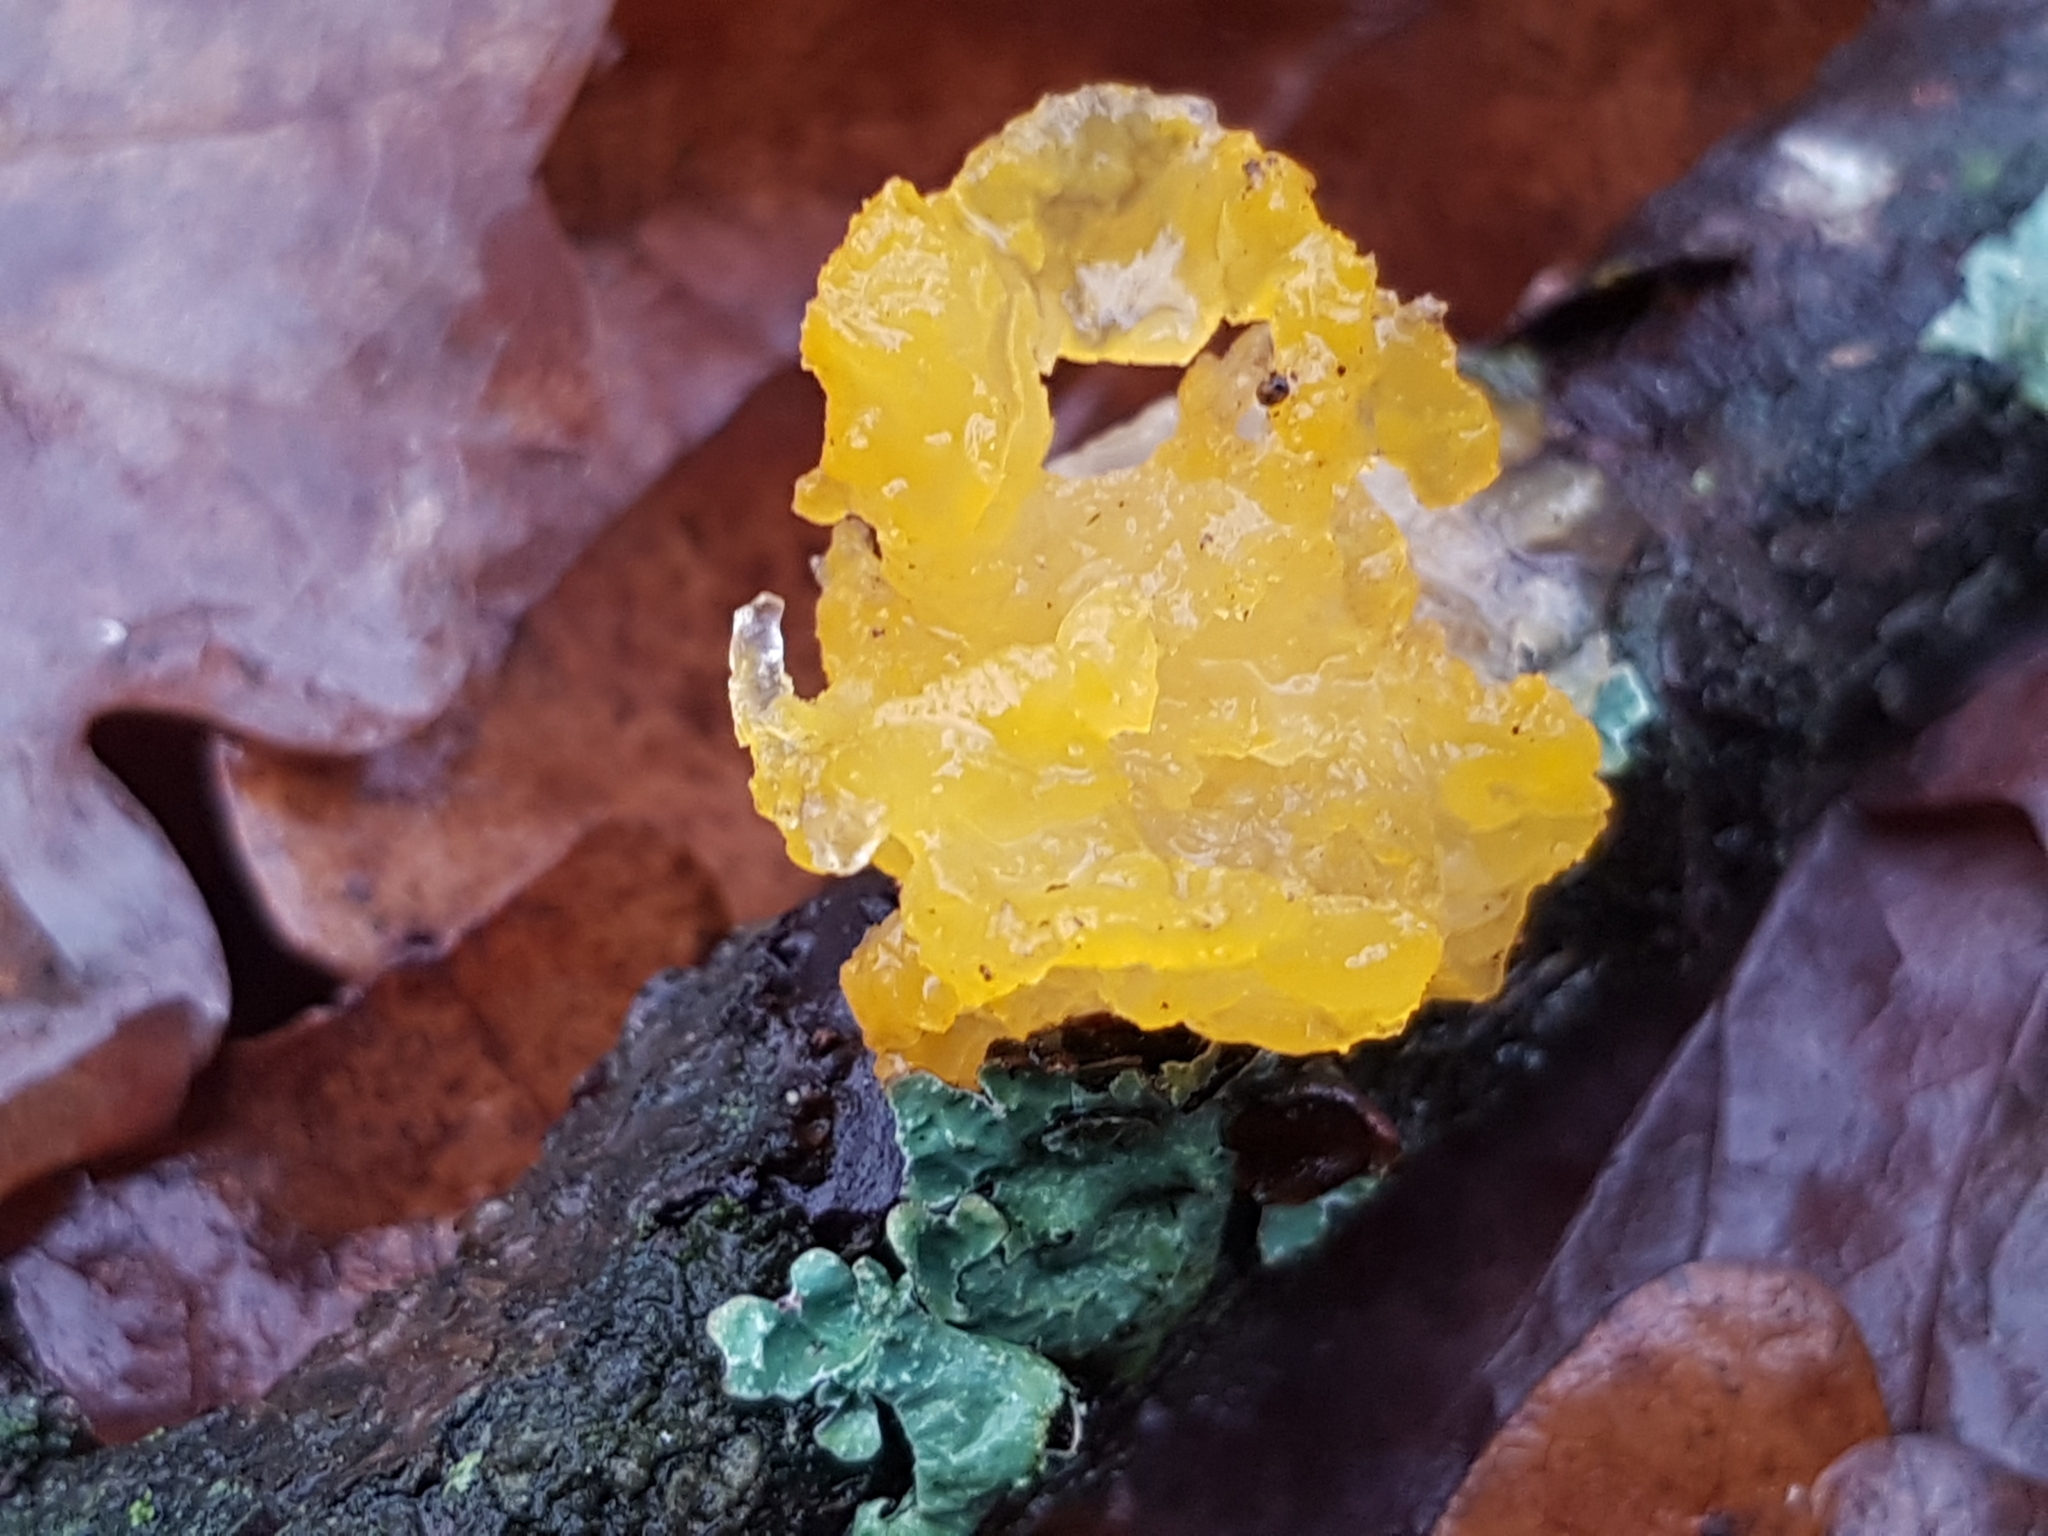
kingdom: Fungi
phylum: Basidiomycota
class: Tremellomycetes
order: Tremellales
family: Tremellaceae
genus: Tremella
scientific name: Tremella mesenterica
